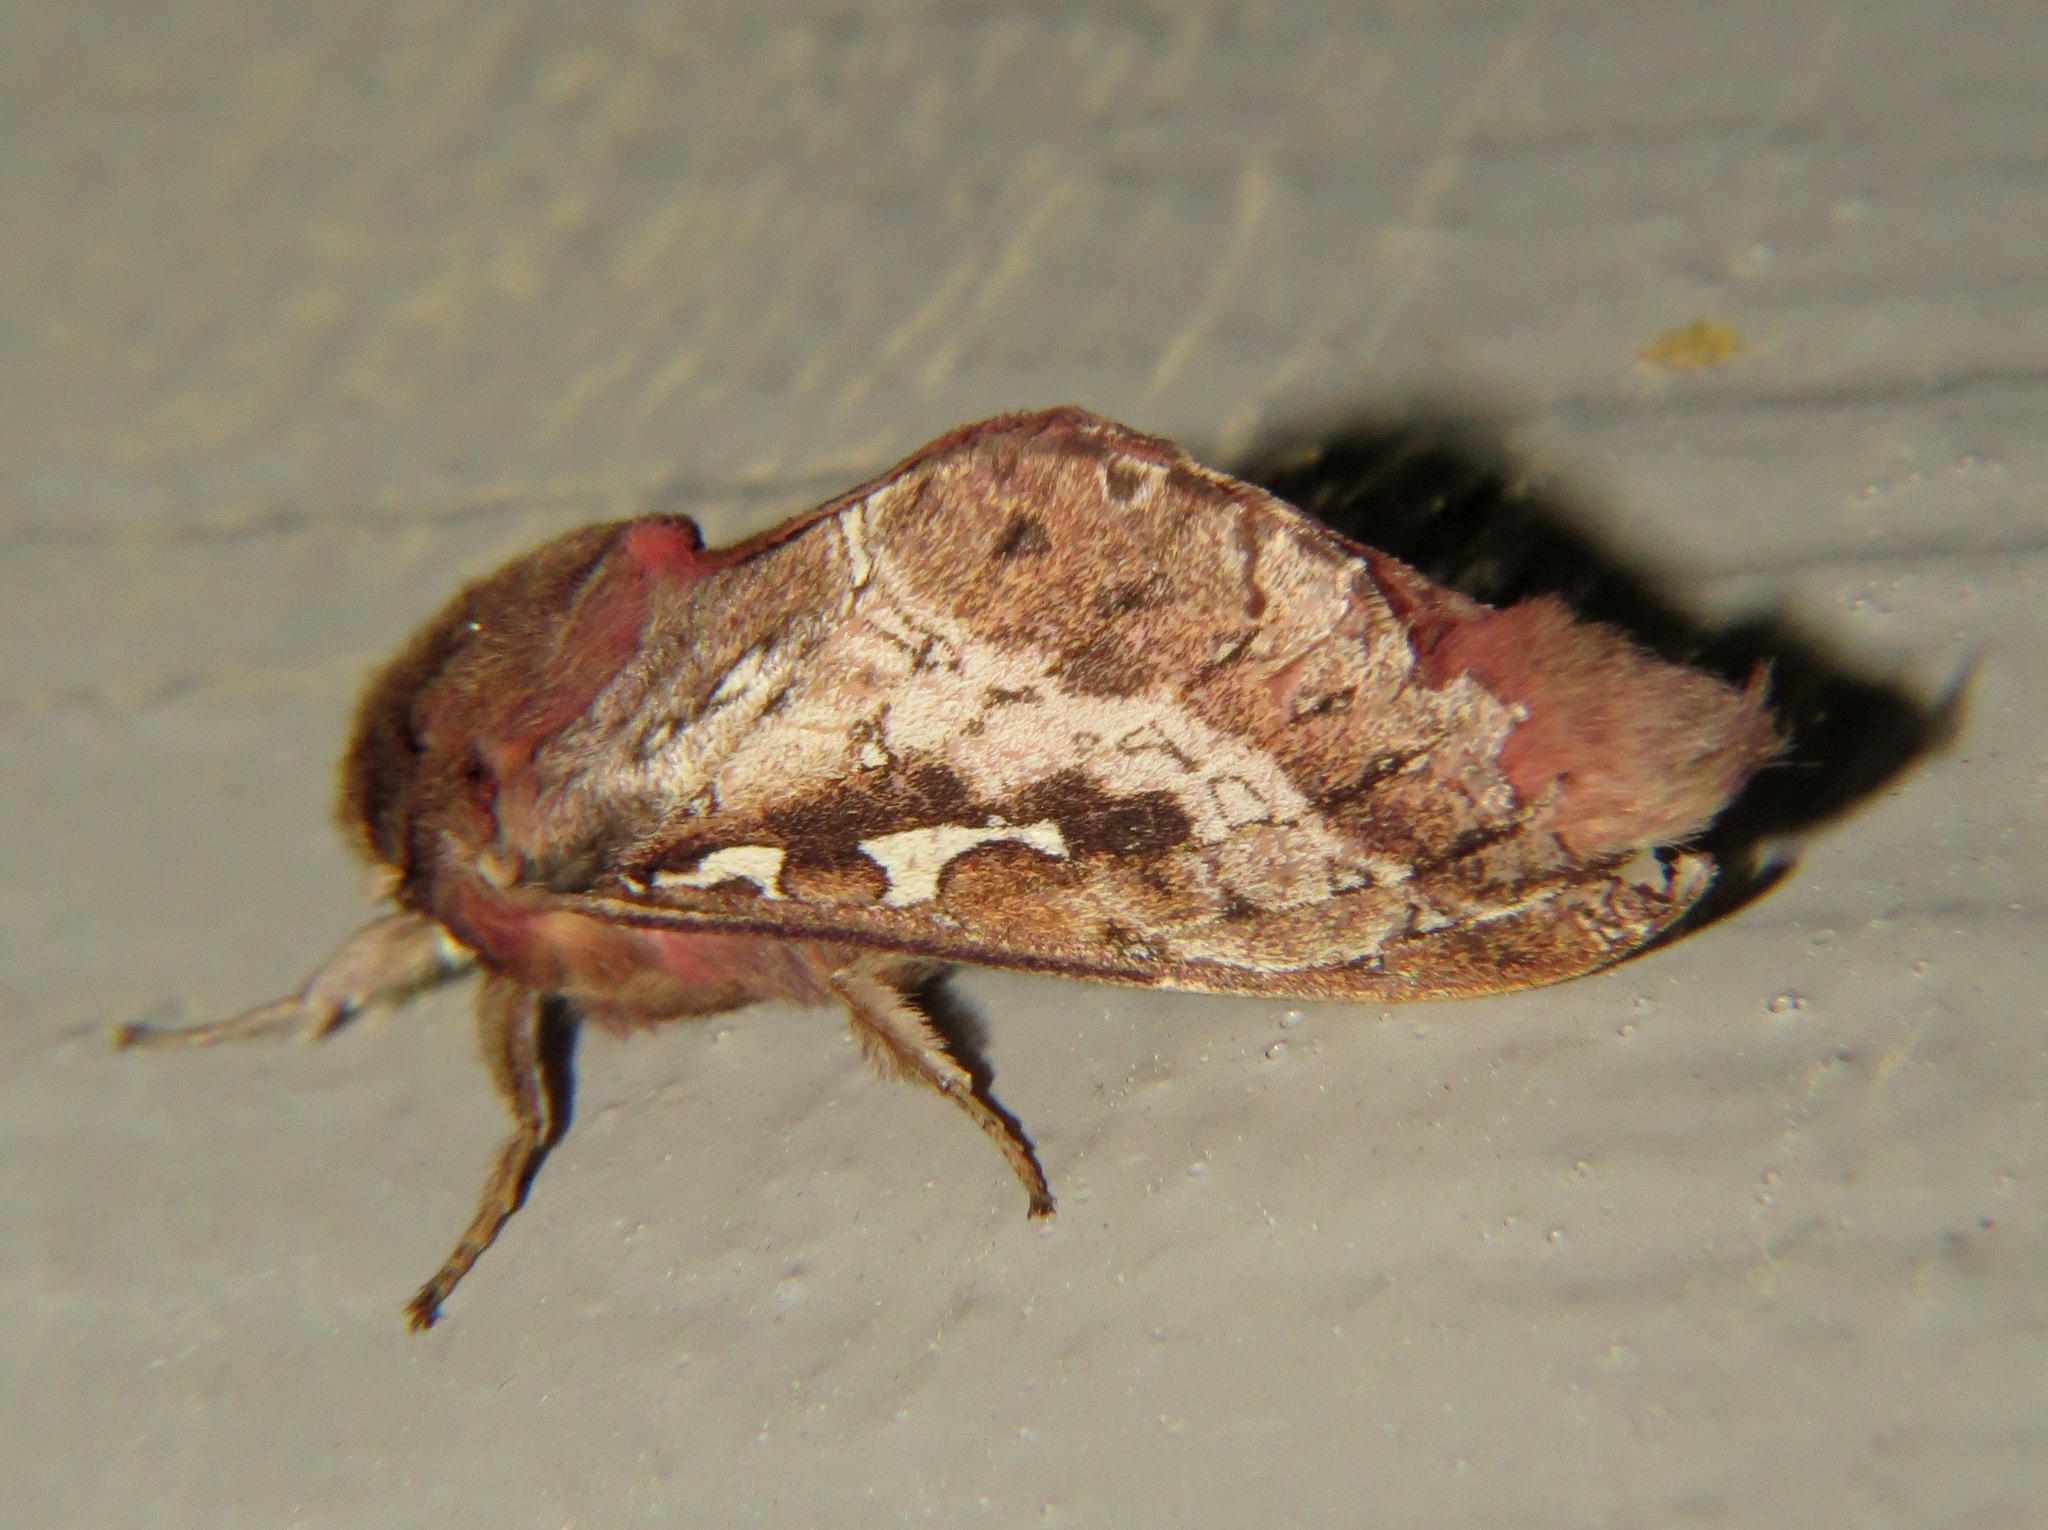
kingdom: Animalia
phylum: Arthropoda
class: Insecta
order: Lepidoptera
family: Hepialidae
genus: Wiseana
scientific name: Wiseana signata
